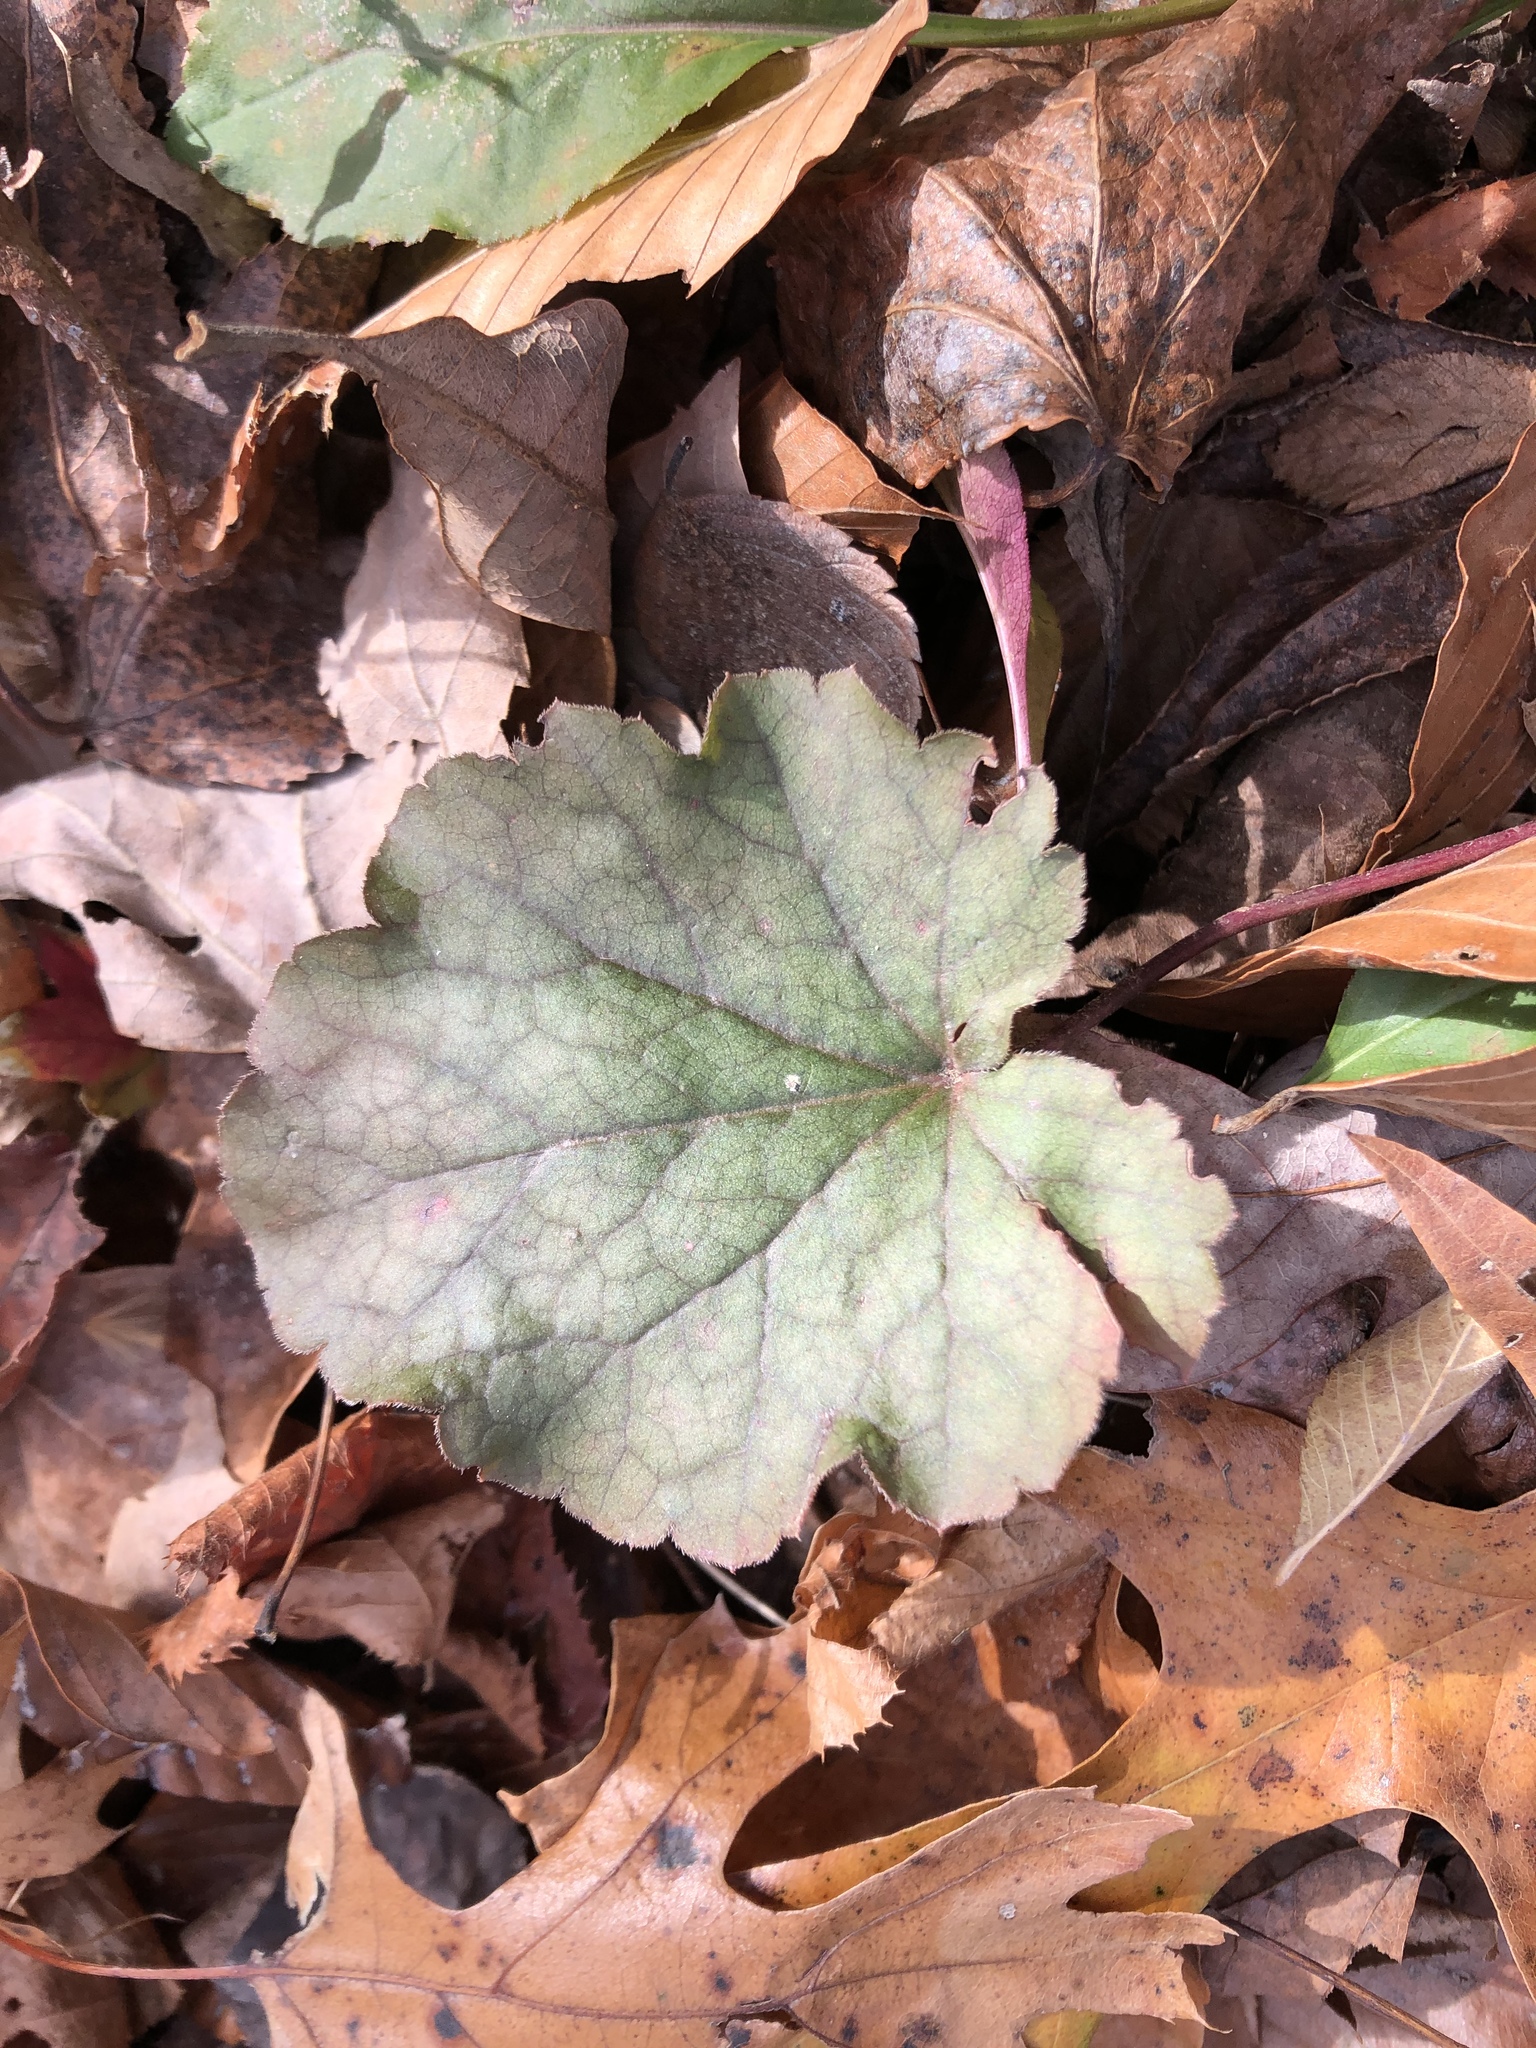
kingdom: Plantae
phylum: Tracheophyta
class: Magnoliopsida
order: Saxifragales
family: Saxifragaceae
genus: Heuchera
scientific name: Heuchera americana
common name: Alumroot
